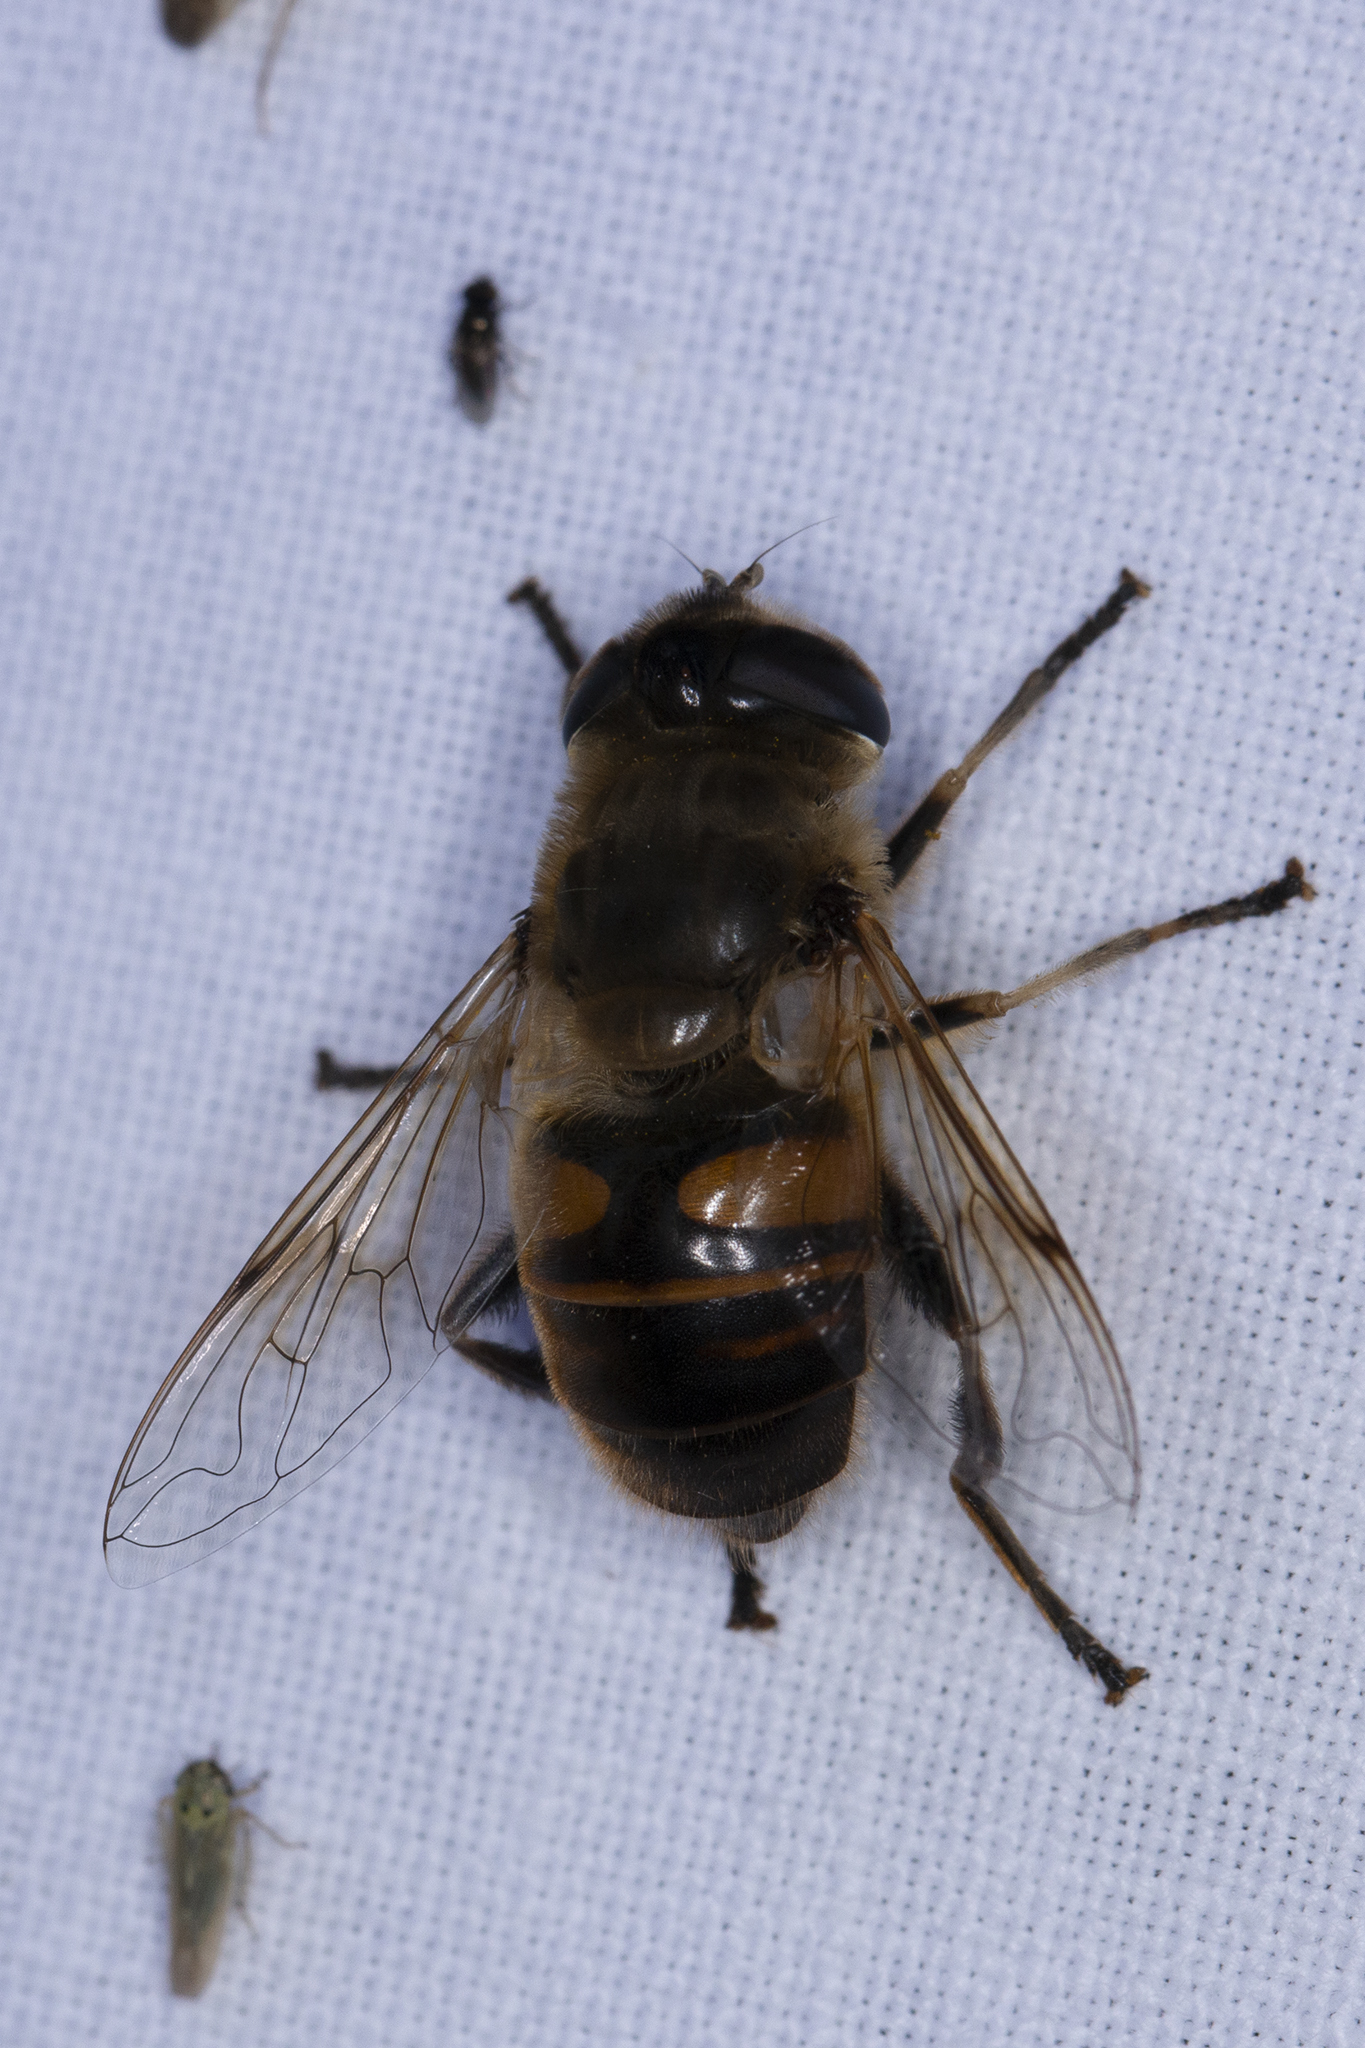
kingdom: Animalia
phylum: Arthropoda
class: Insecta
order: Diptera
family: Syrphidae
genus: Eristalis
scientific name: Eristalis tenax
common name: Drone fly
